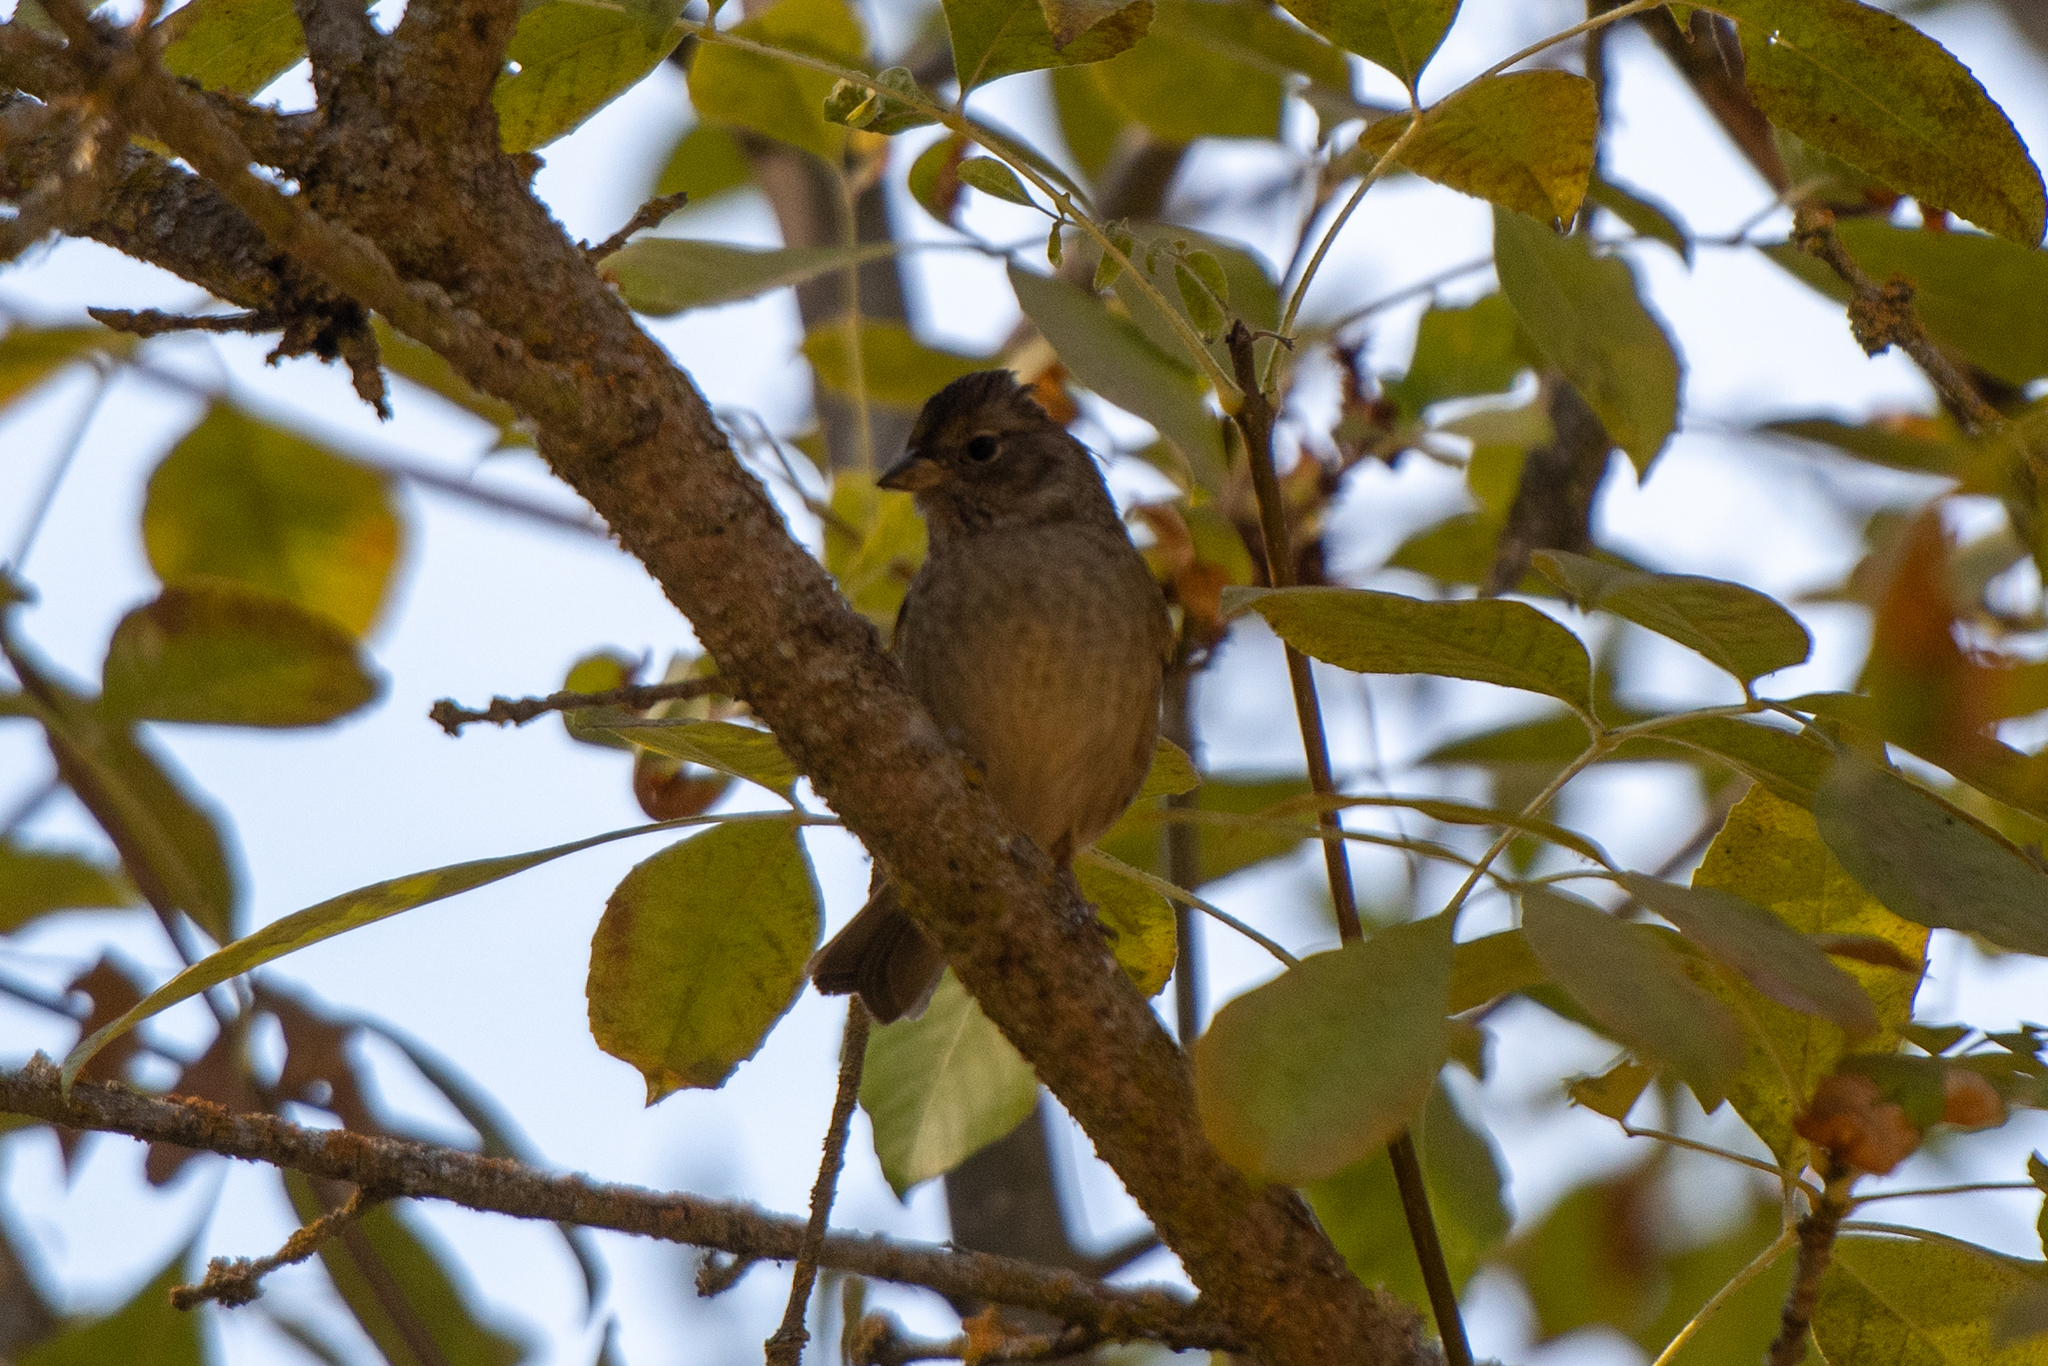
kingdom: Animalia
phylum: Chordata
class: Aves
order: Passeriformes
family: Passerellidae
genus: Zonotrichia
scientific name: Zonotrichia atricapilla
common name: Golden-crowned sparrow
